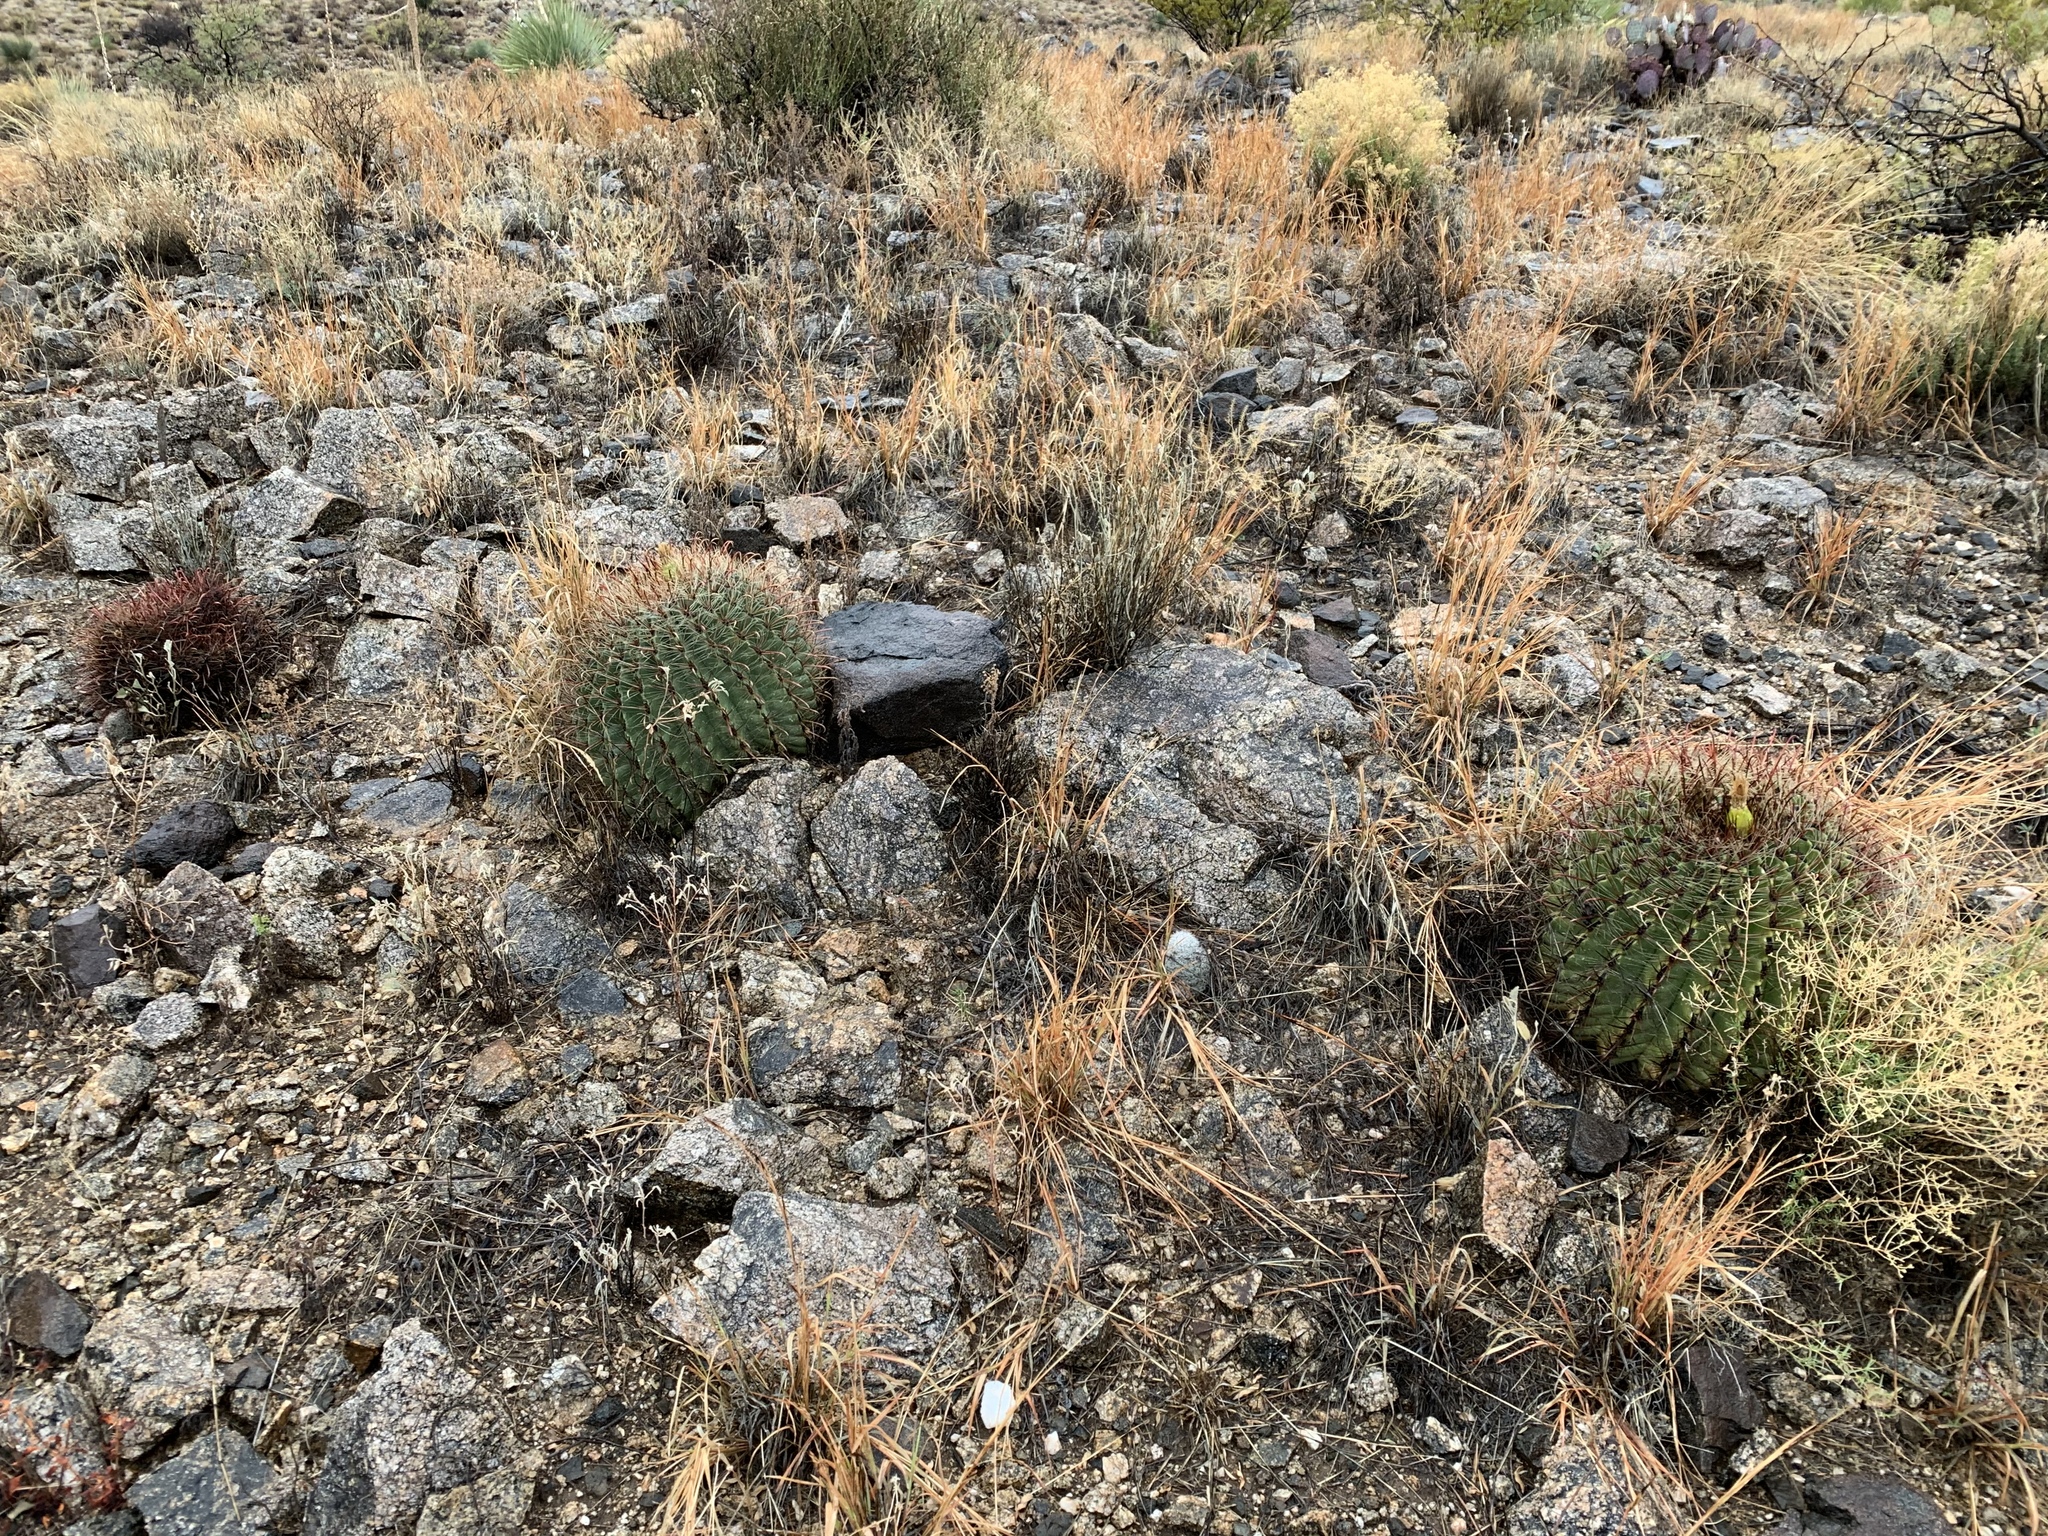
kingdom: Plantae
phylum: Tracheophyta
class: Magnoliopsida
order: Caryophyllales
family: Cactaceae
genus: Ferocactus
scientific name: Ferocactus wislizeni
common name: Candy barrel cactus
